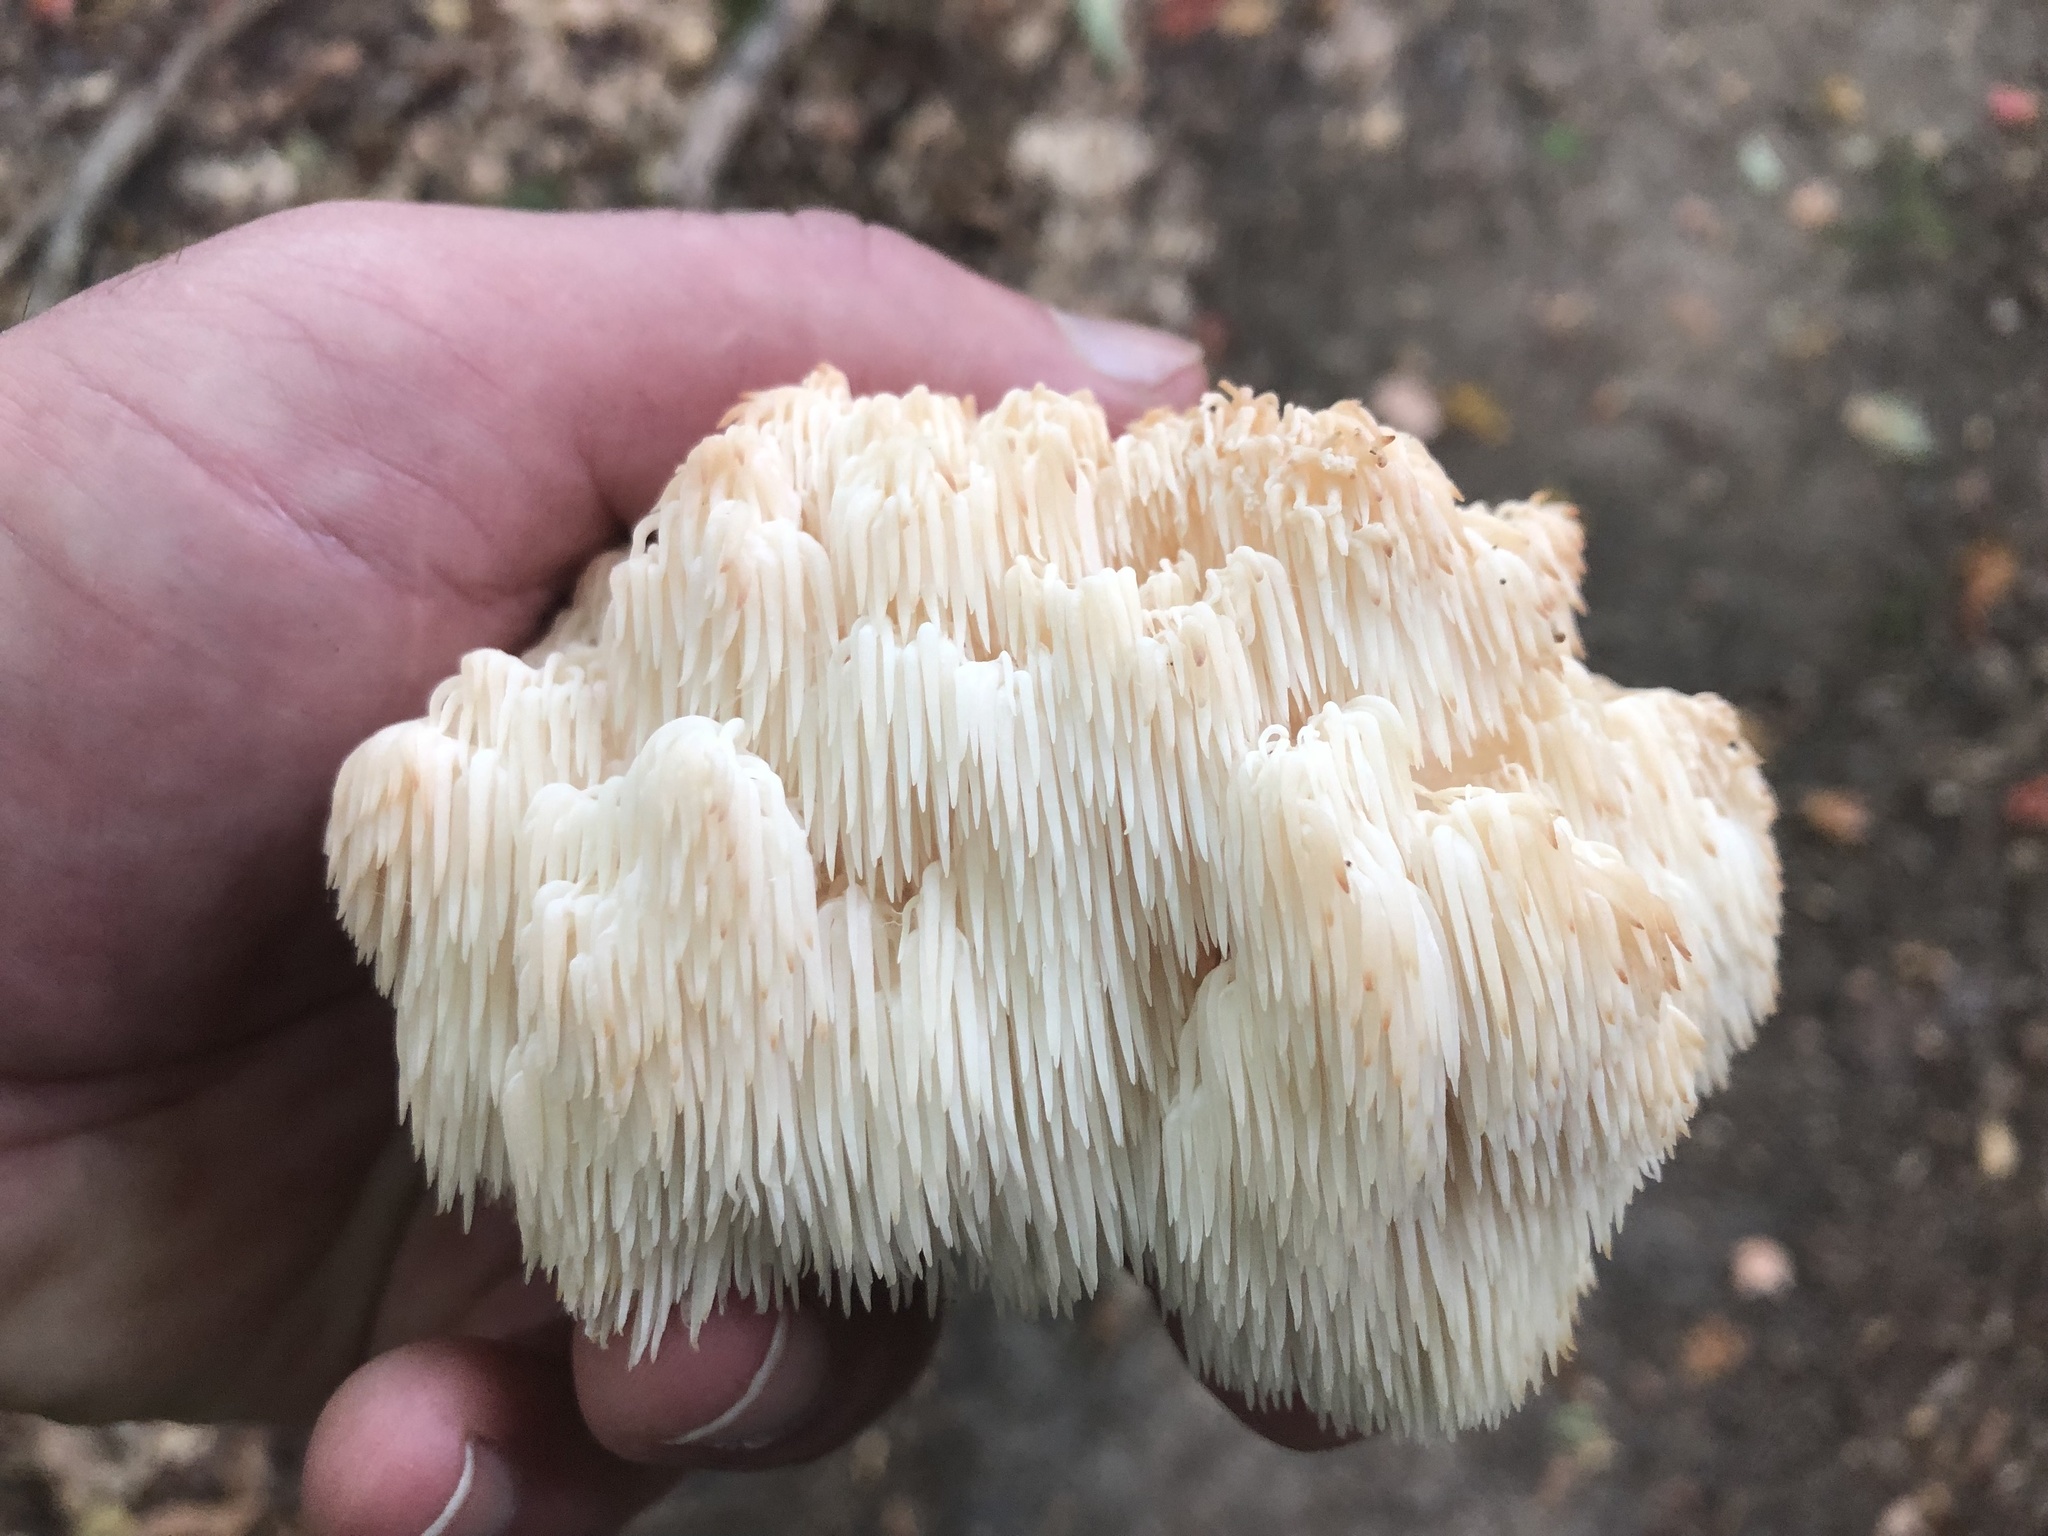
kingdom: Fungi
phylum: Basidiomycota
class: Agaricomycetes
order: Russulales
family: Hericiaceae
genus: Hericium
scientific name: Hericium americanum
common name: Bear's head tooth
